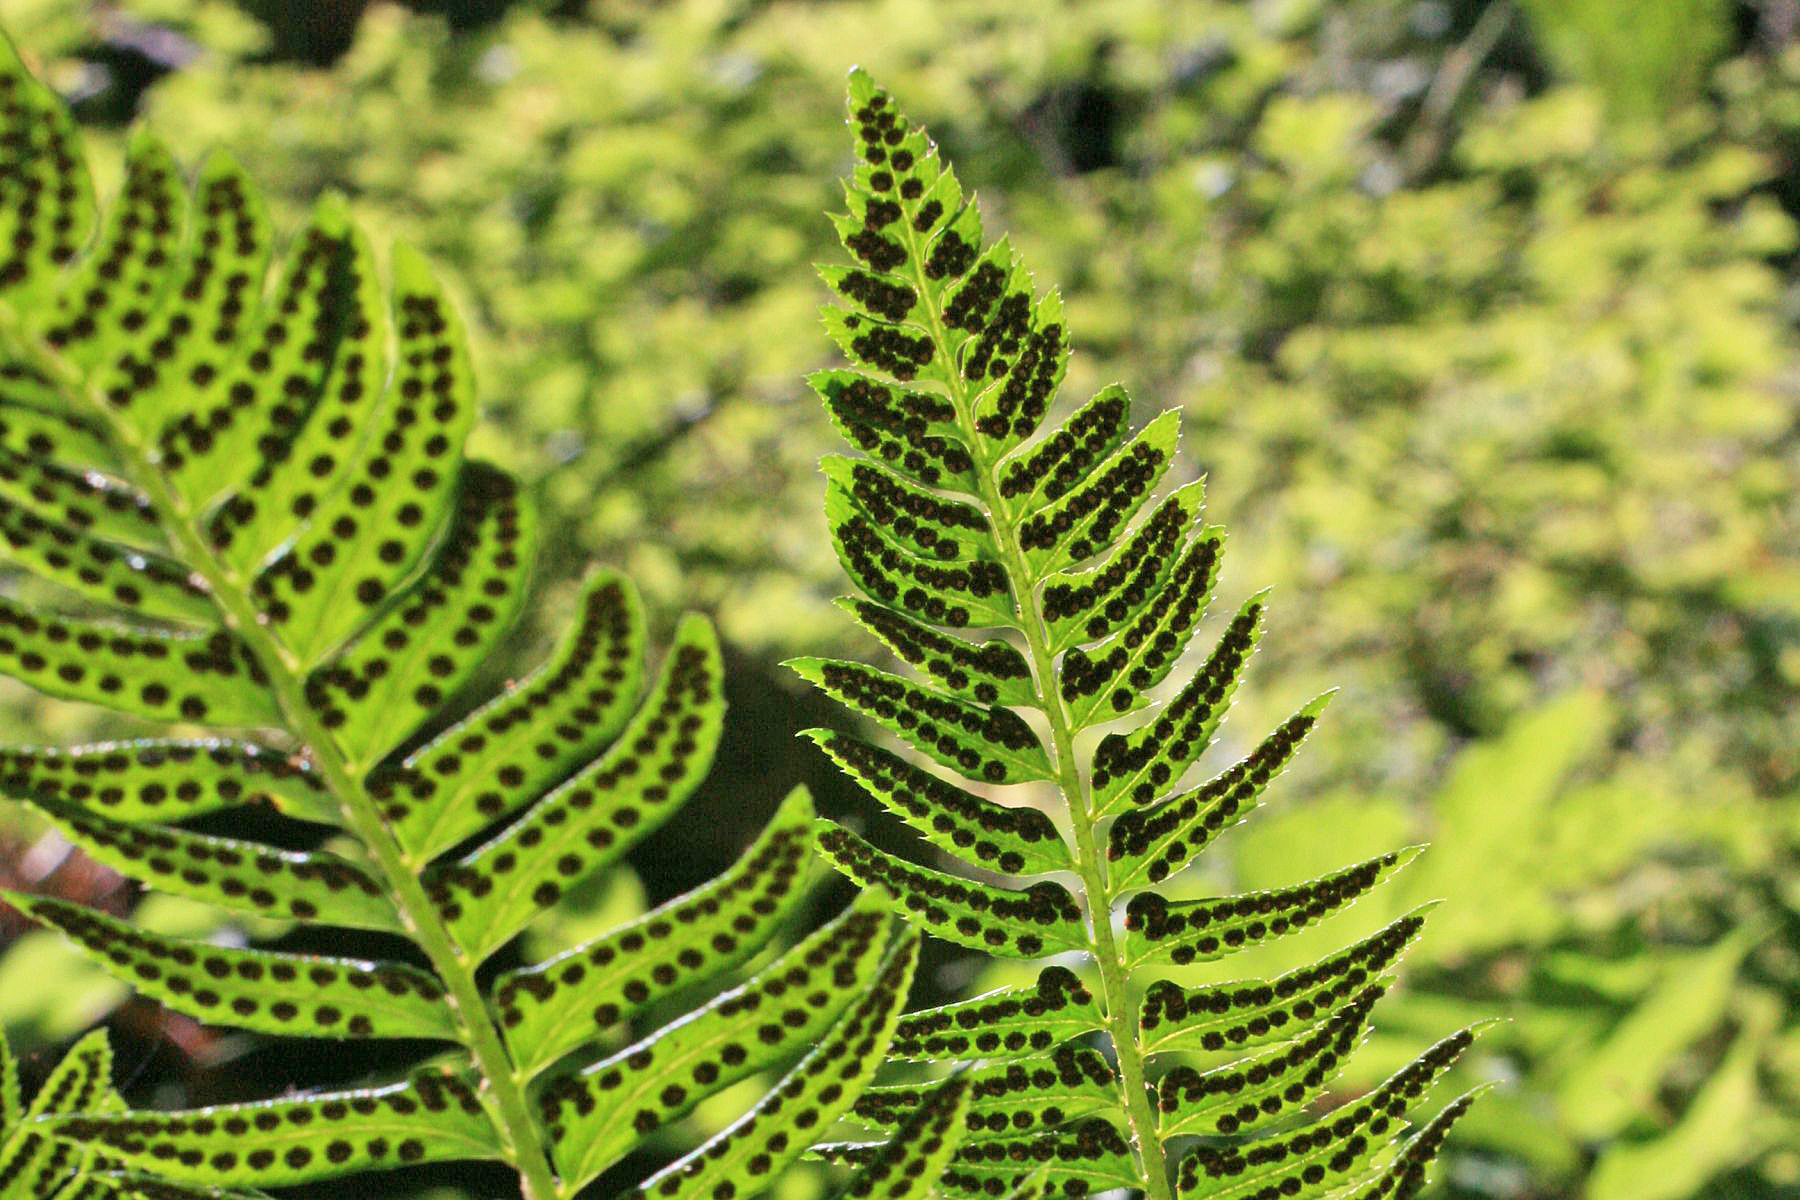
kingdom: Plantae
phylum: Tracheophyta
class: Polypodiopsida
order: Polypodiales
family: Dryopteridaceae
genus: Polystichum
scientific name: Polystichum lonchitis
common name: Holly fern
